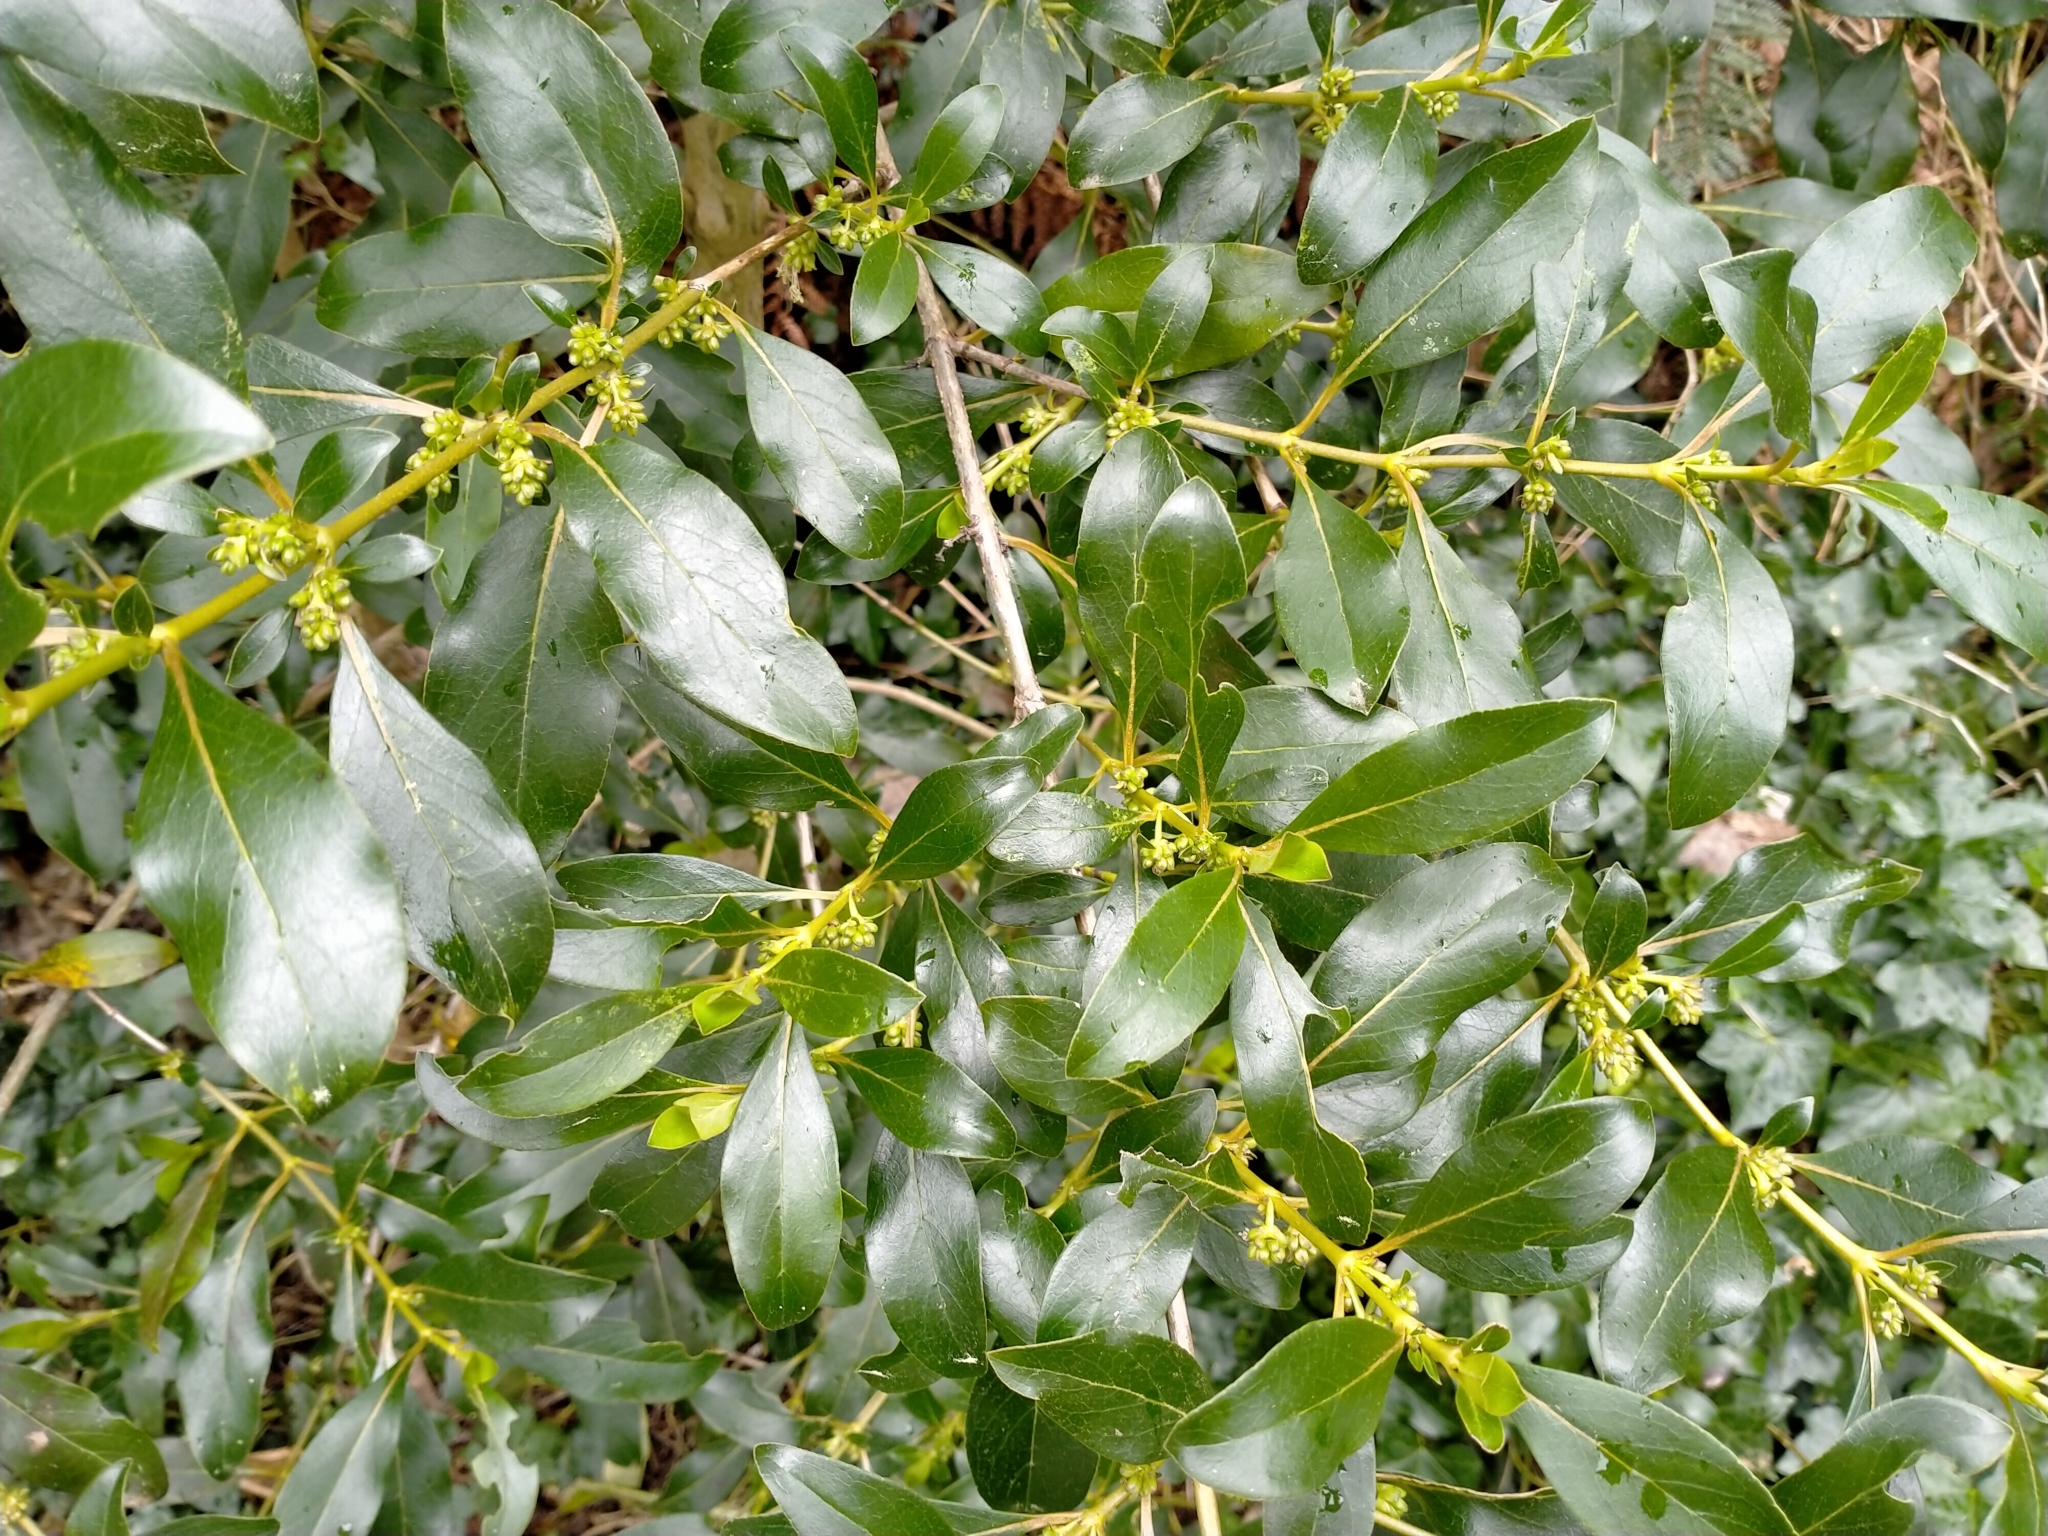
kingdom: Plantae
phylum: Tracheophyta
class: Magnoliopsida
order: Gentianales
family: Rubiaceae
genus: Coprosma
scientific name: Coprosma robusta
